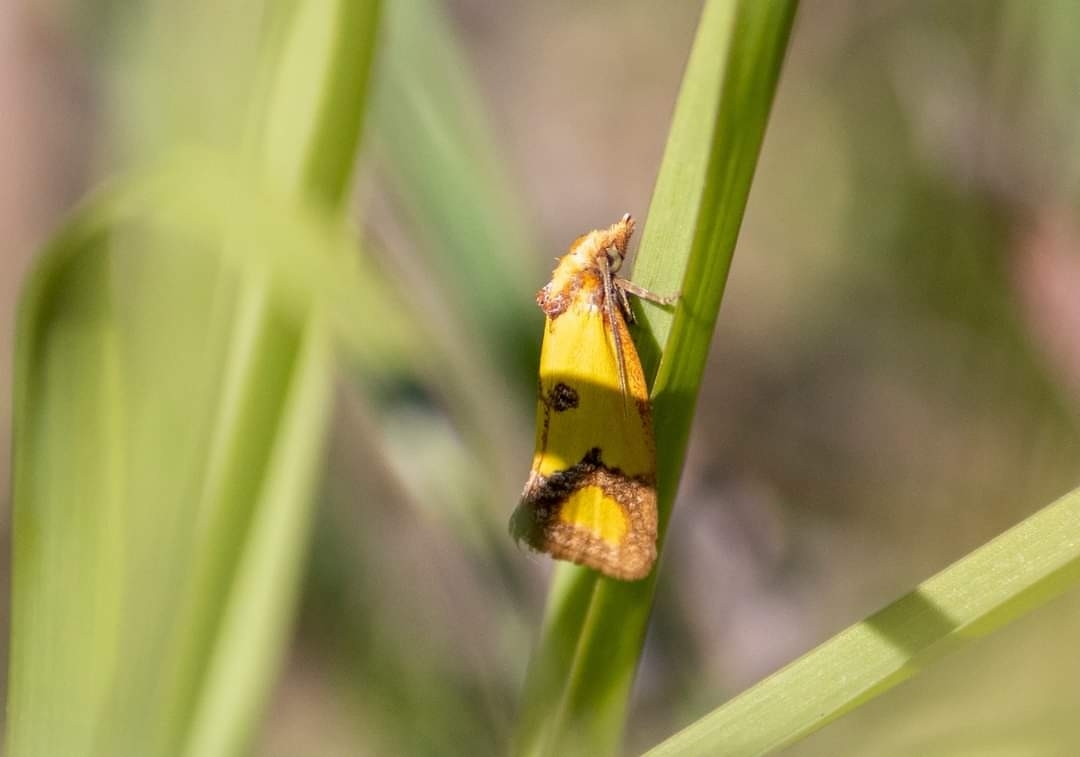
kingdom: Animalia
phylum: Arthropoda
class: Insecta
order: Lepidoptera
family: Tortricidae
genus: Agapeta
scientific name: Agapeta zoegana
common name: Sulfur knapweed root moth
